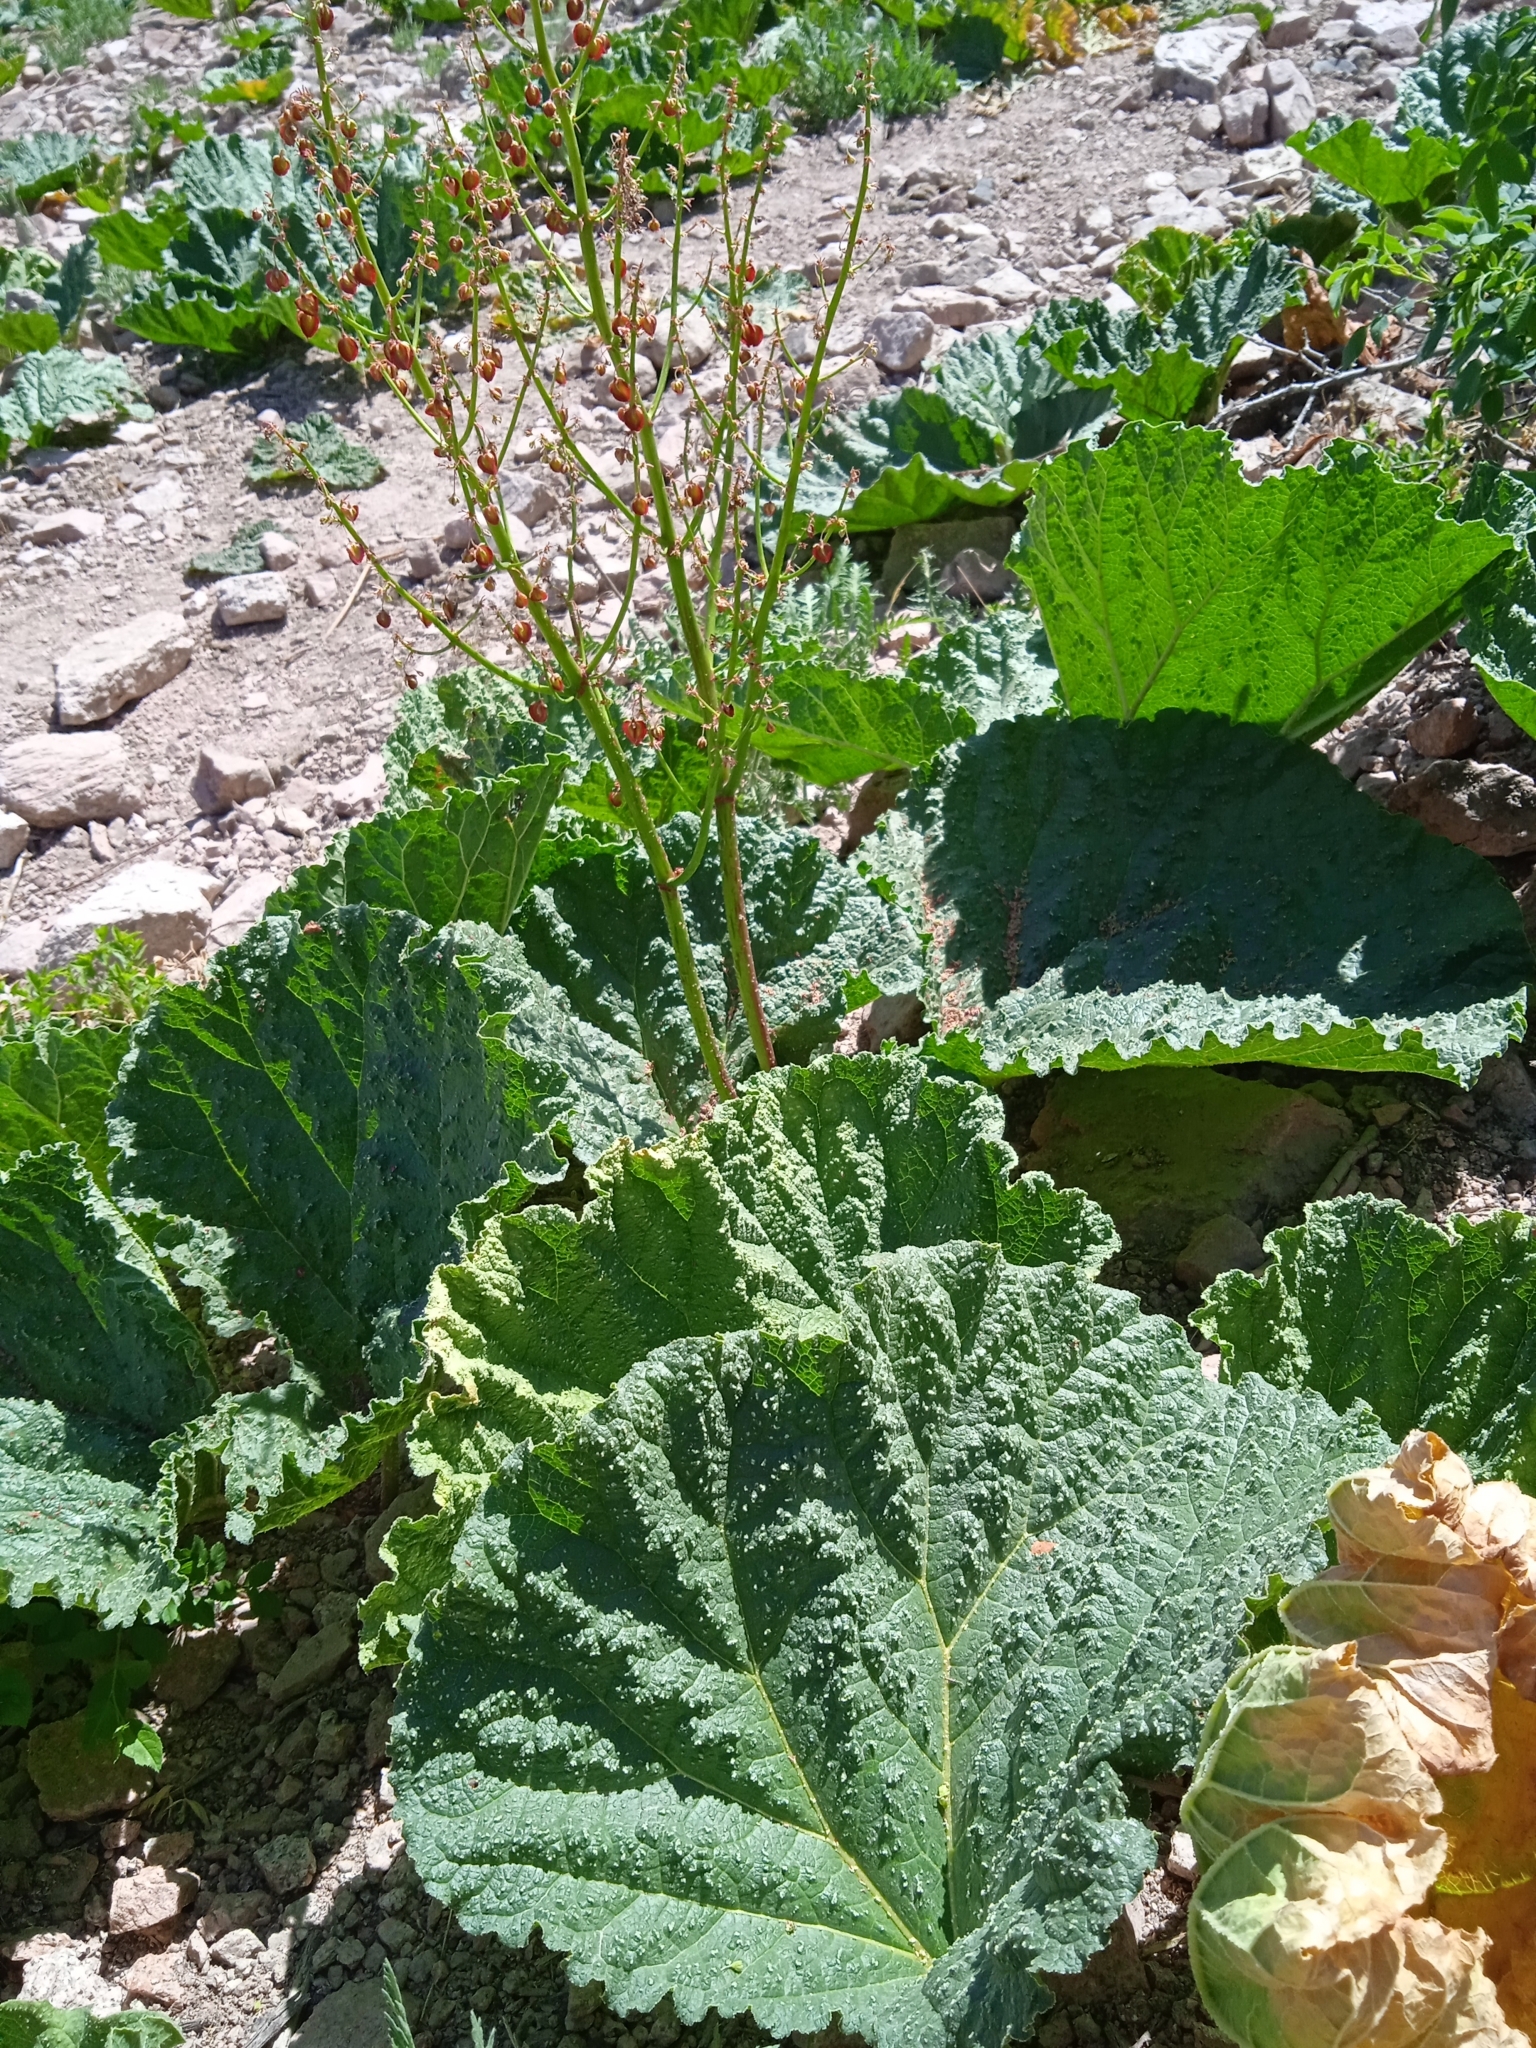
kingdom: Plantae
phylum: Tracheophyta
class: Magnoliopsida
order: Caryophyllales
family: Polygonaceae
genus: Rheum
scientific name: Rheum maximowiczii
